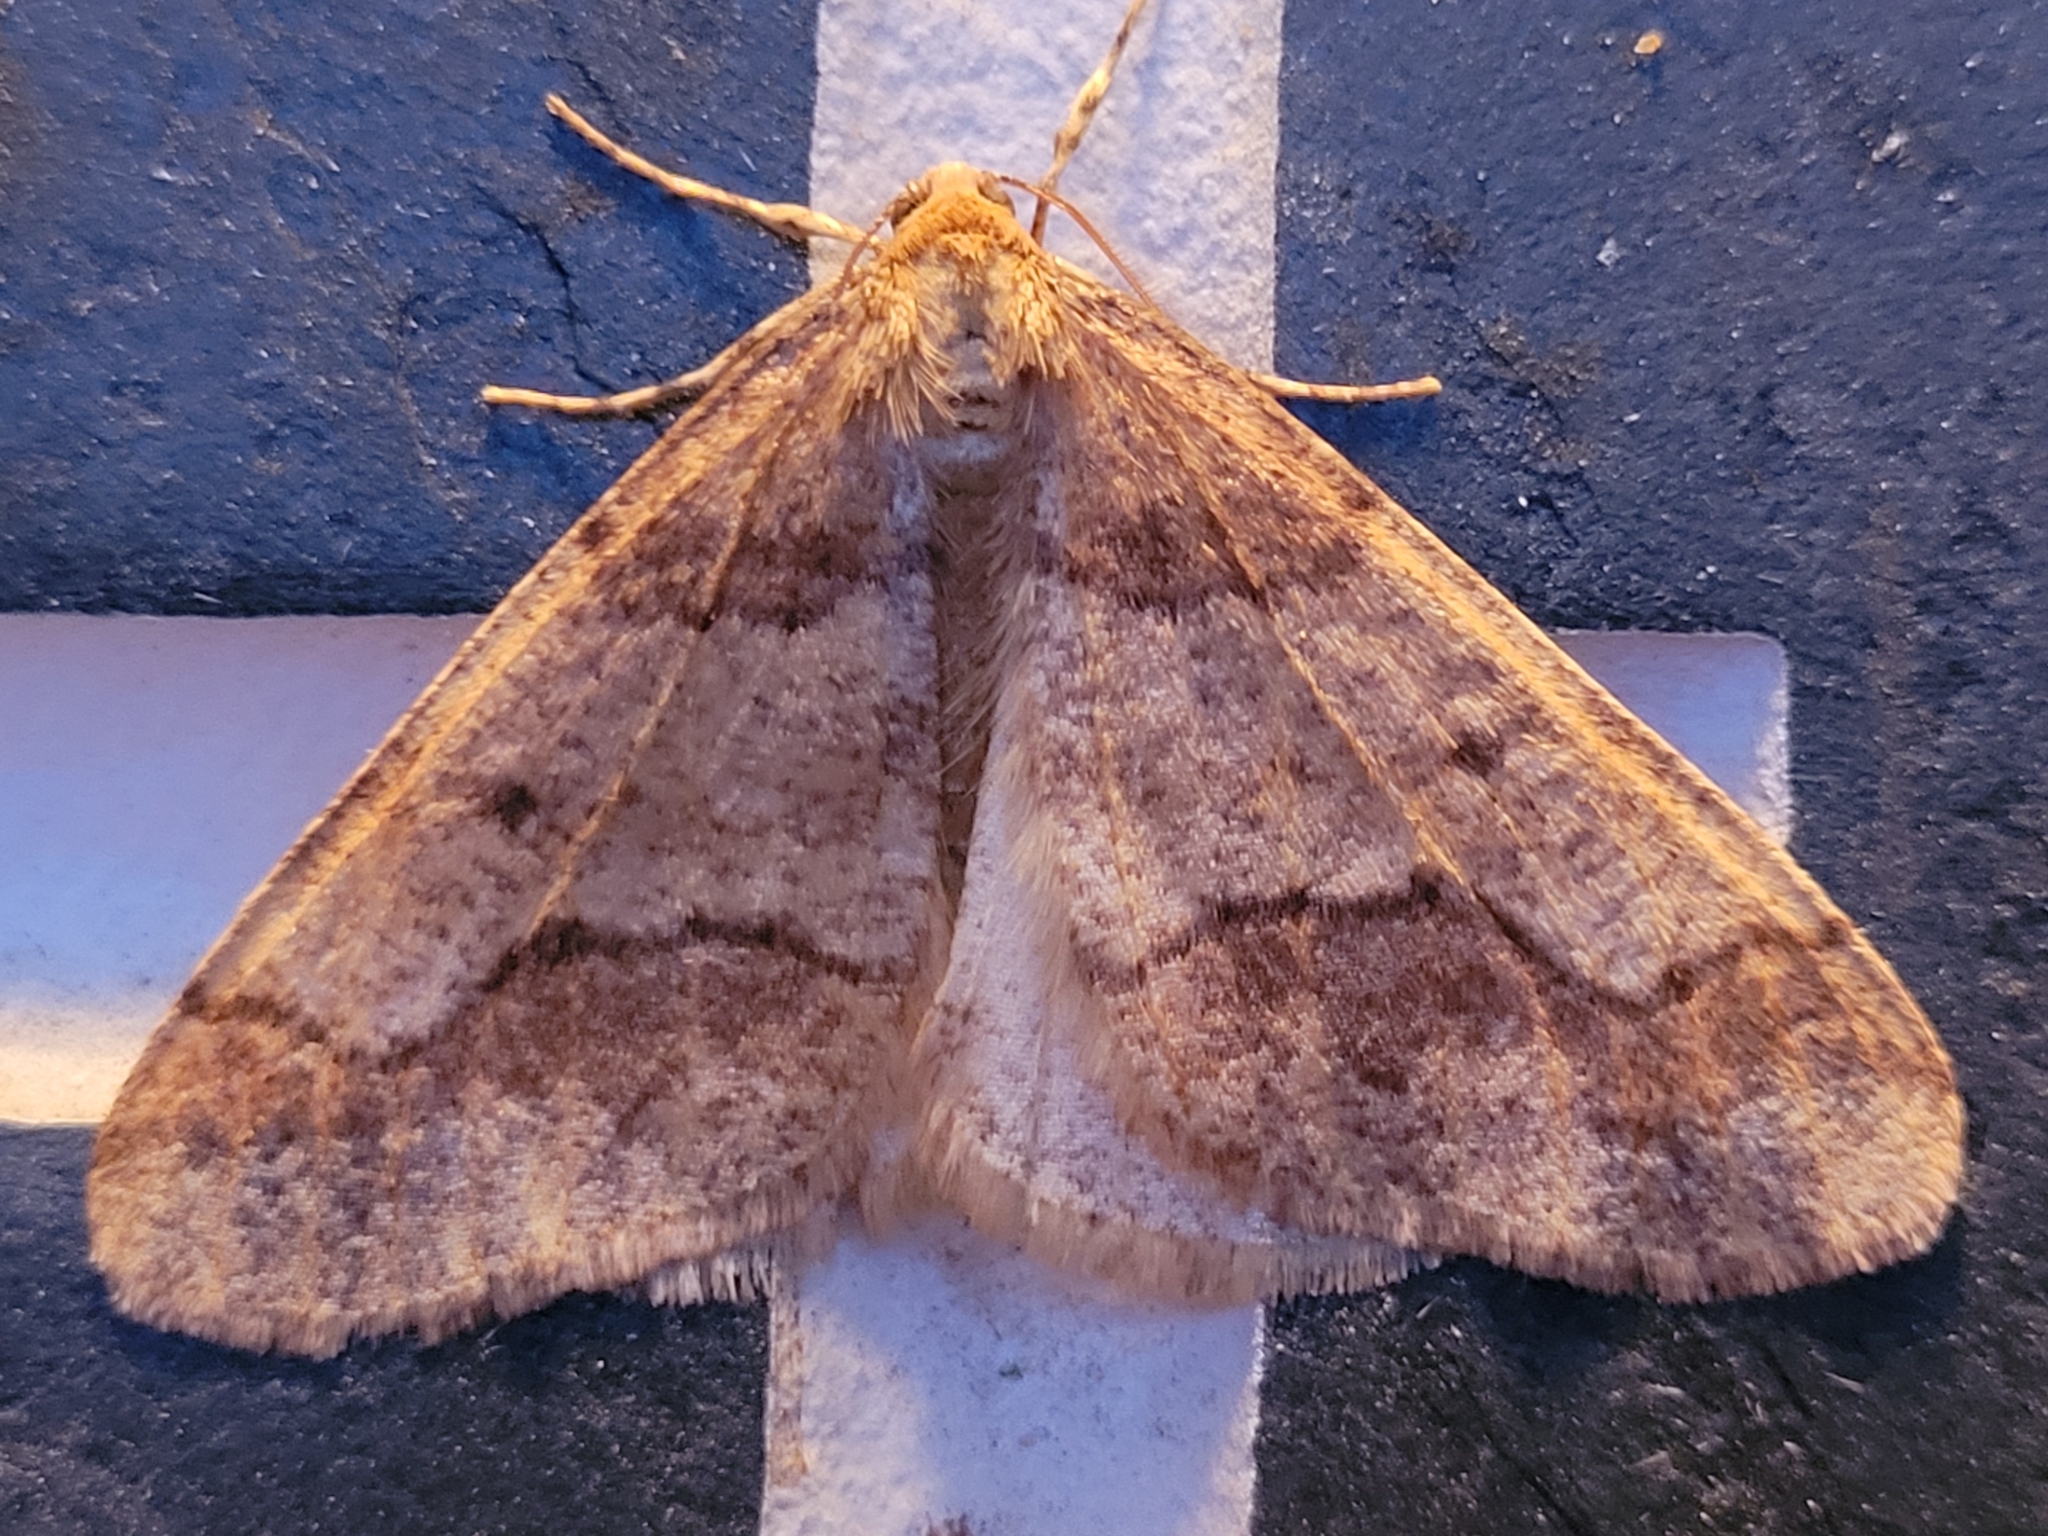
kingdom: Animalia
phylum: Arthropoda
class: Insecta
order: Lepidoptera
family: Geometridae
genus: Erannis
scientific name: Erannis tiliaria
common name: Linden looper
